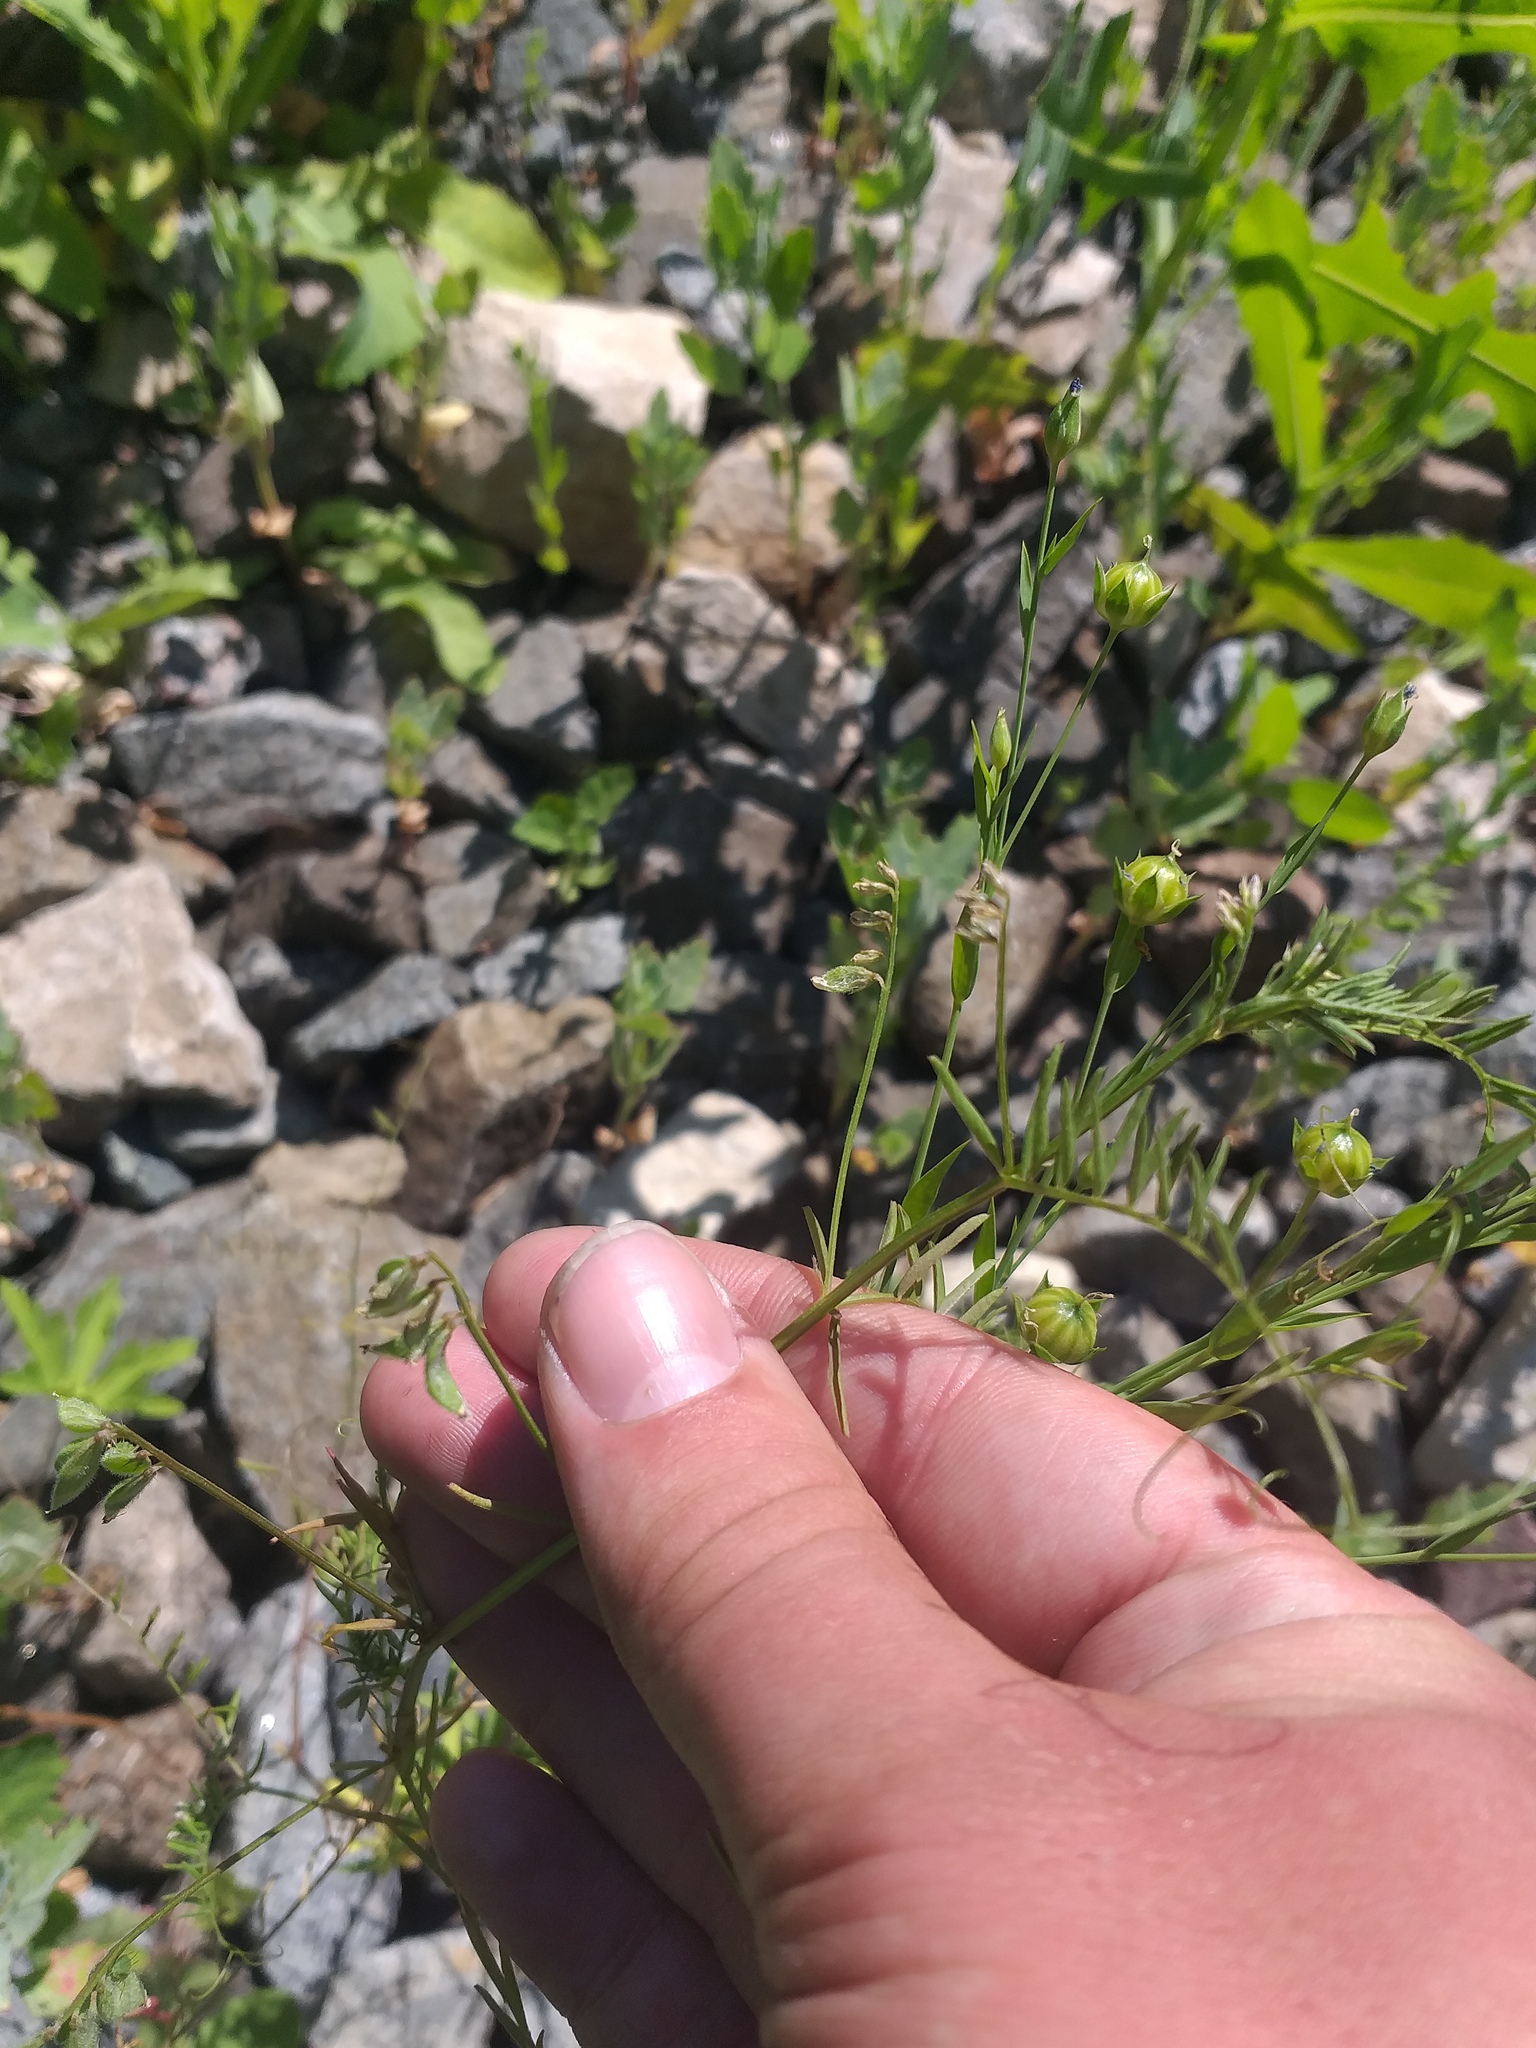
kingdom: Plantae
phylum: Tracheophyta
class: Magnoliopsida
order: Fabales
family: Fabaceae
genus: Vicia
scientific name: Vicia hirsuta
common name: Tiny vetch
